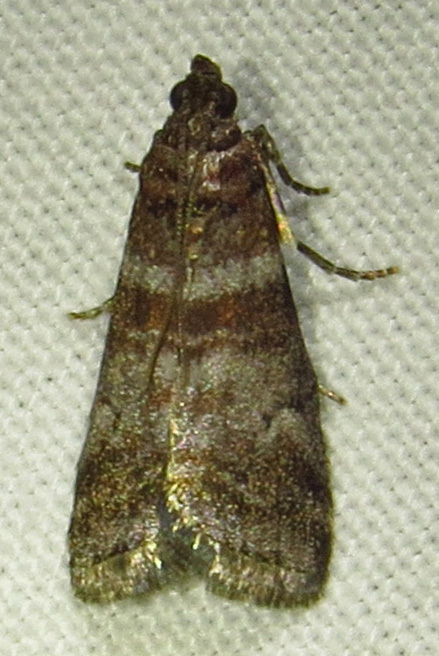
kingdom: Animalia
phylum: Arthropoda
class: Insecta
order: Lepidoptera
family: Pyralidae
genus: Sciota
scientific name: Sciota uvinella
